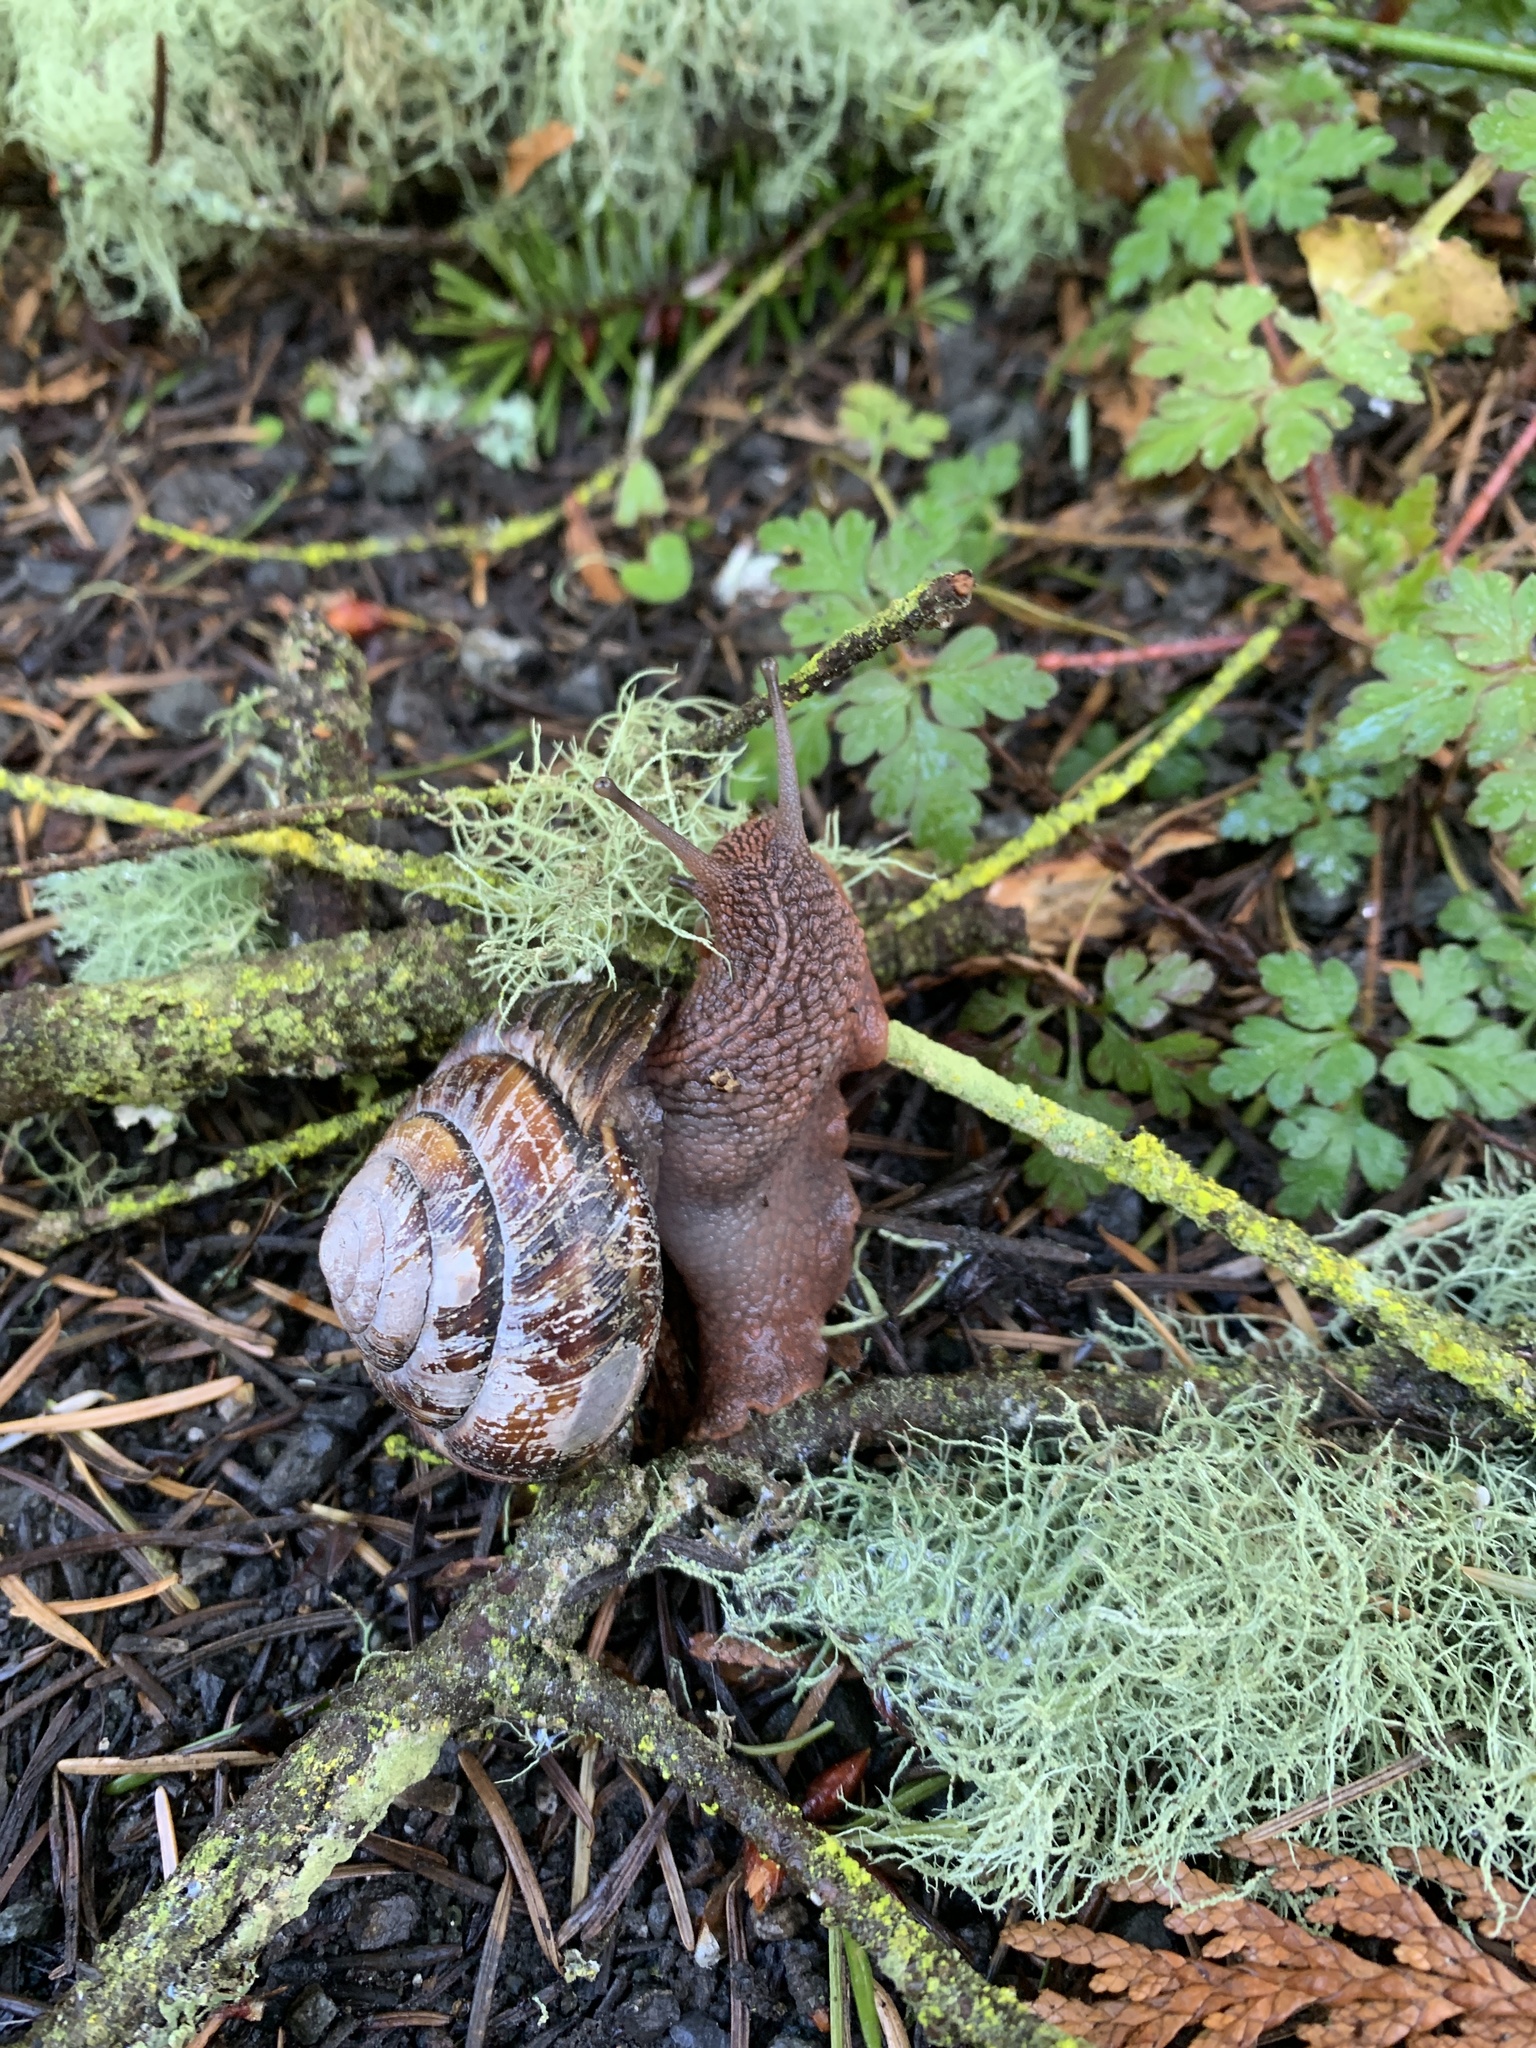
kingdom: Animalia
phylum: Mollusca
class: Gastropoda
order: Stylommatophora
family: Xanthonychidae
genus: Monadenia
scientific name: Monadenia fidelis
